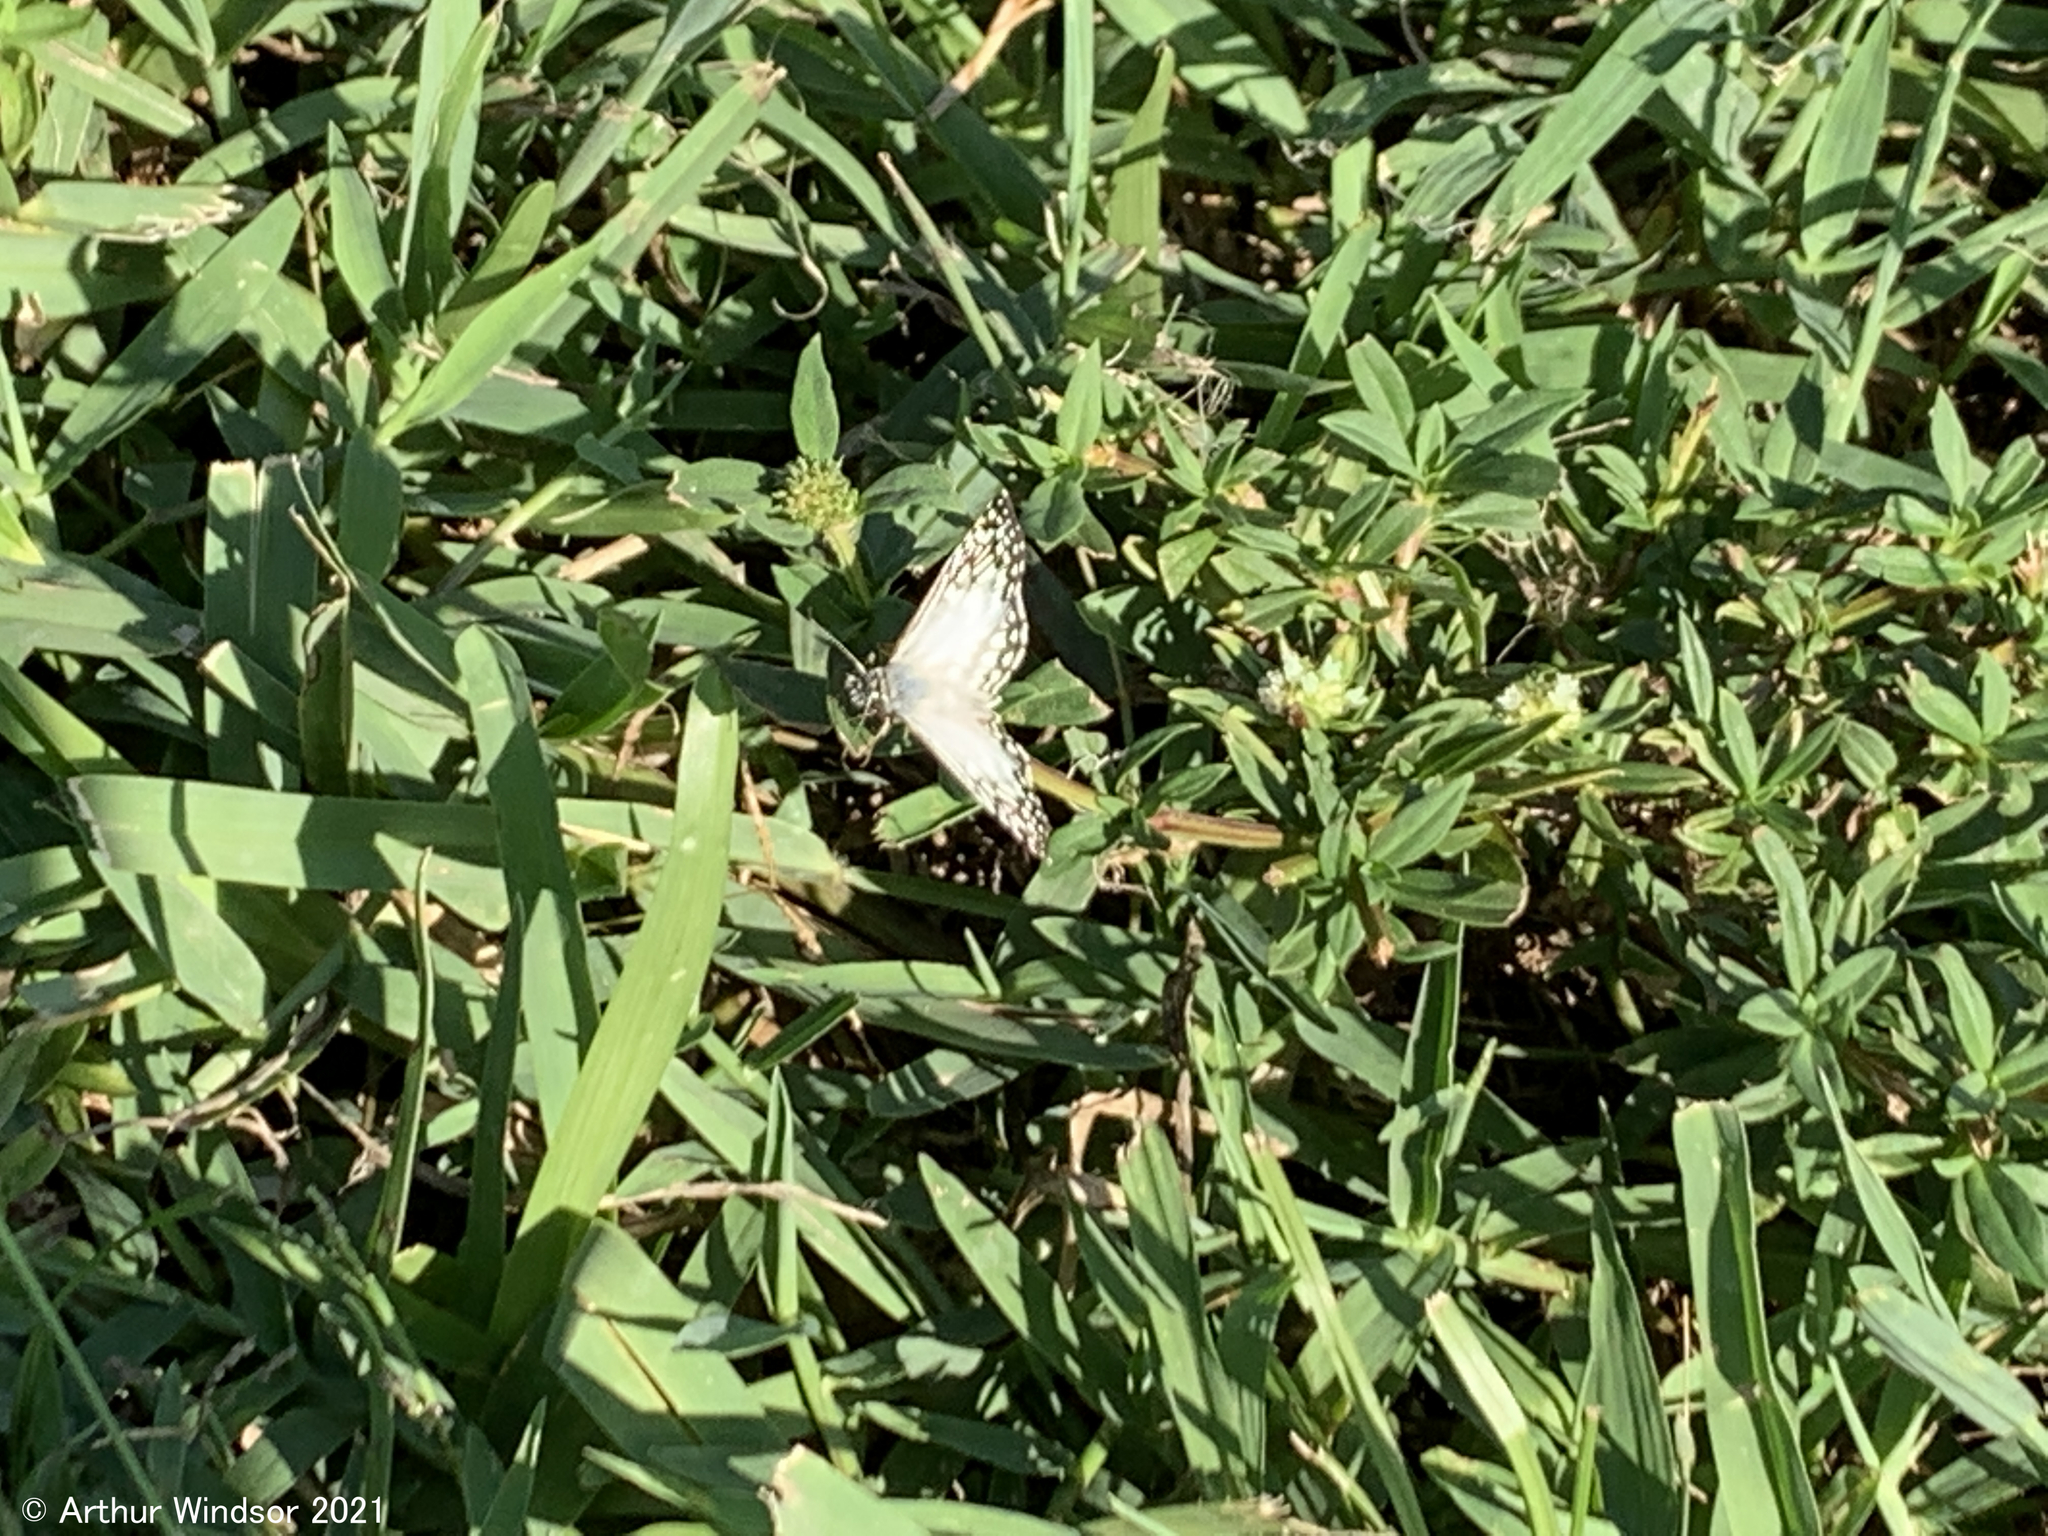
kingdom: Animalia
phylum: Arthropoda
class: Insecta
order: Lepidoptera
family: Hesperiidae
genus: Pyrgus
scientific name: Pyrgus oileus
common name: Tropical checkered-skipper
